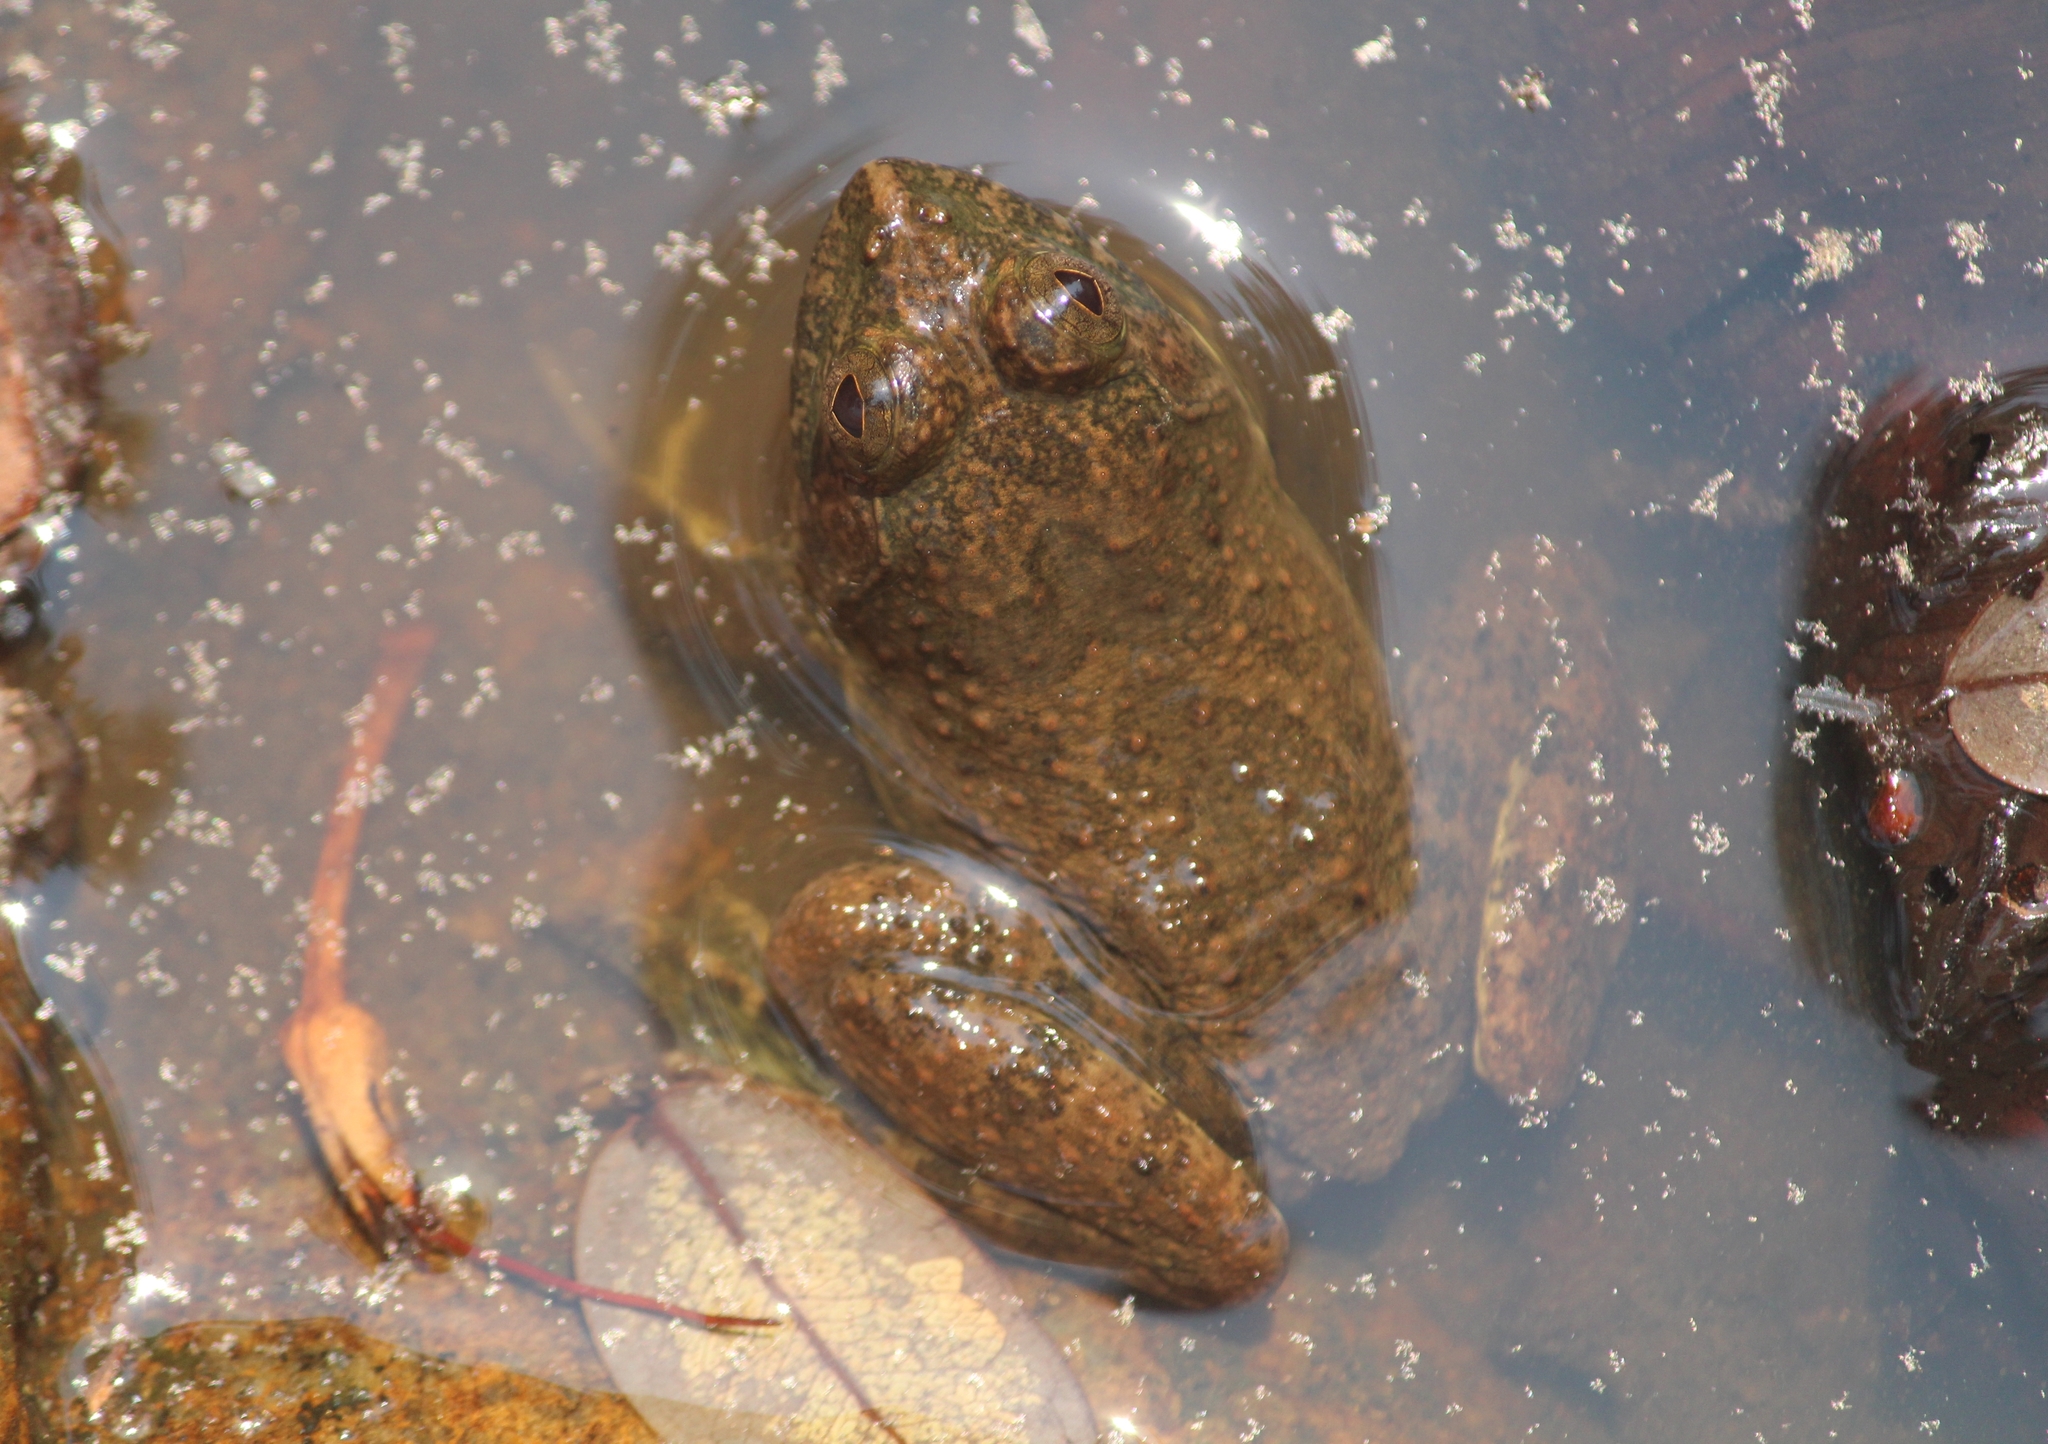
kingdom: Animalia
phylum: Chordata
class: Amphibia
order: Anura
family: Dicroglossidae
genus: Euphlyctis
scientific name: Euphlyctis cyanophlyctis
